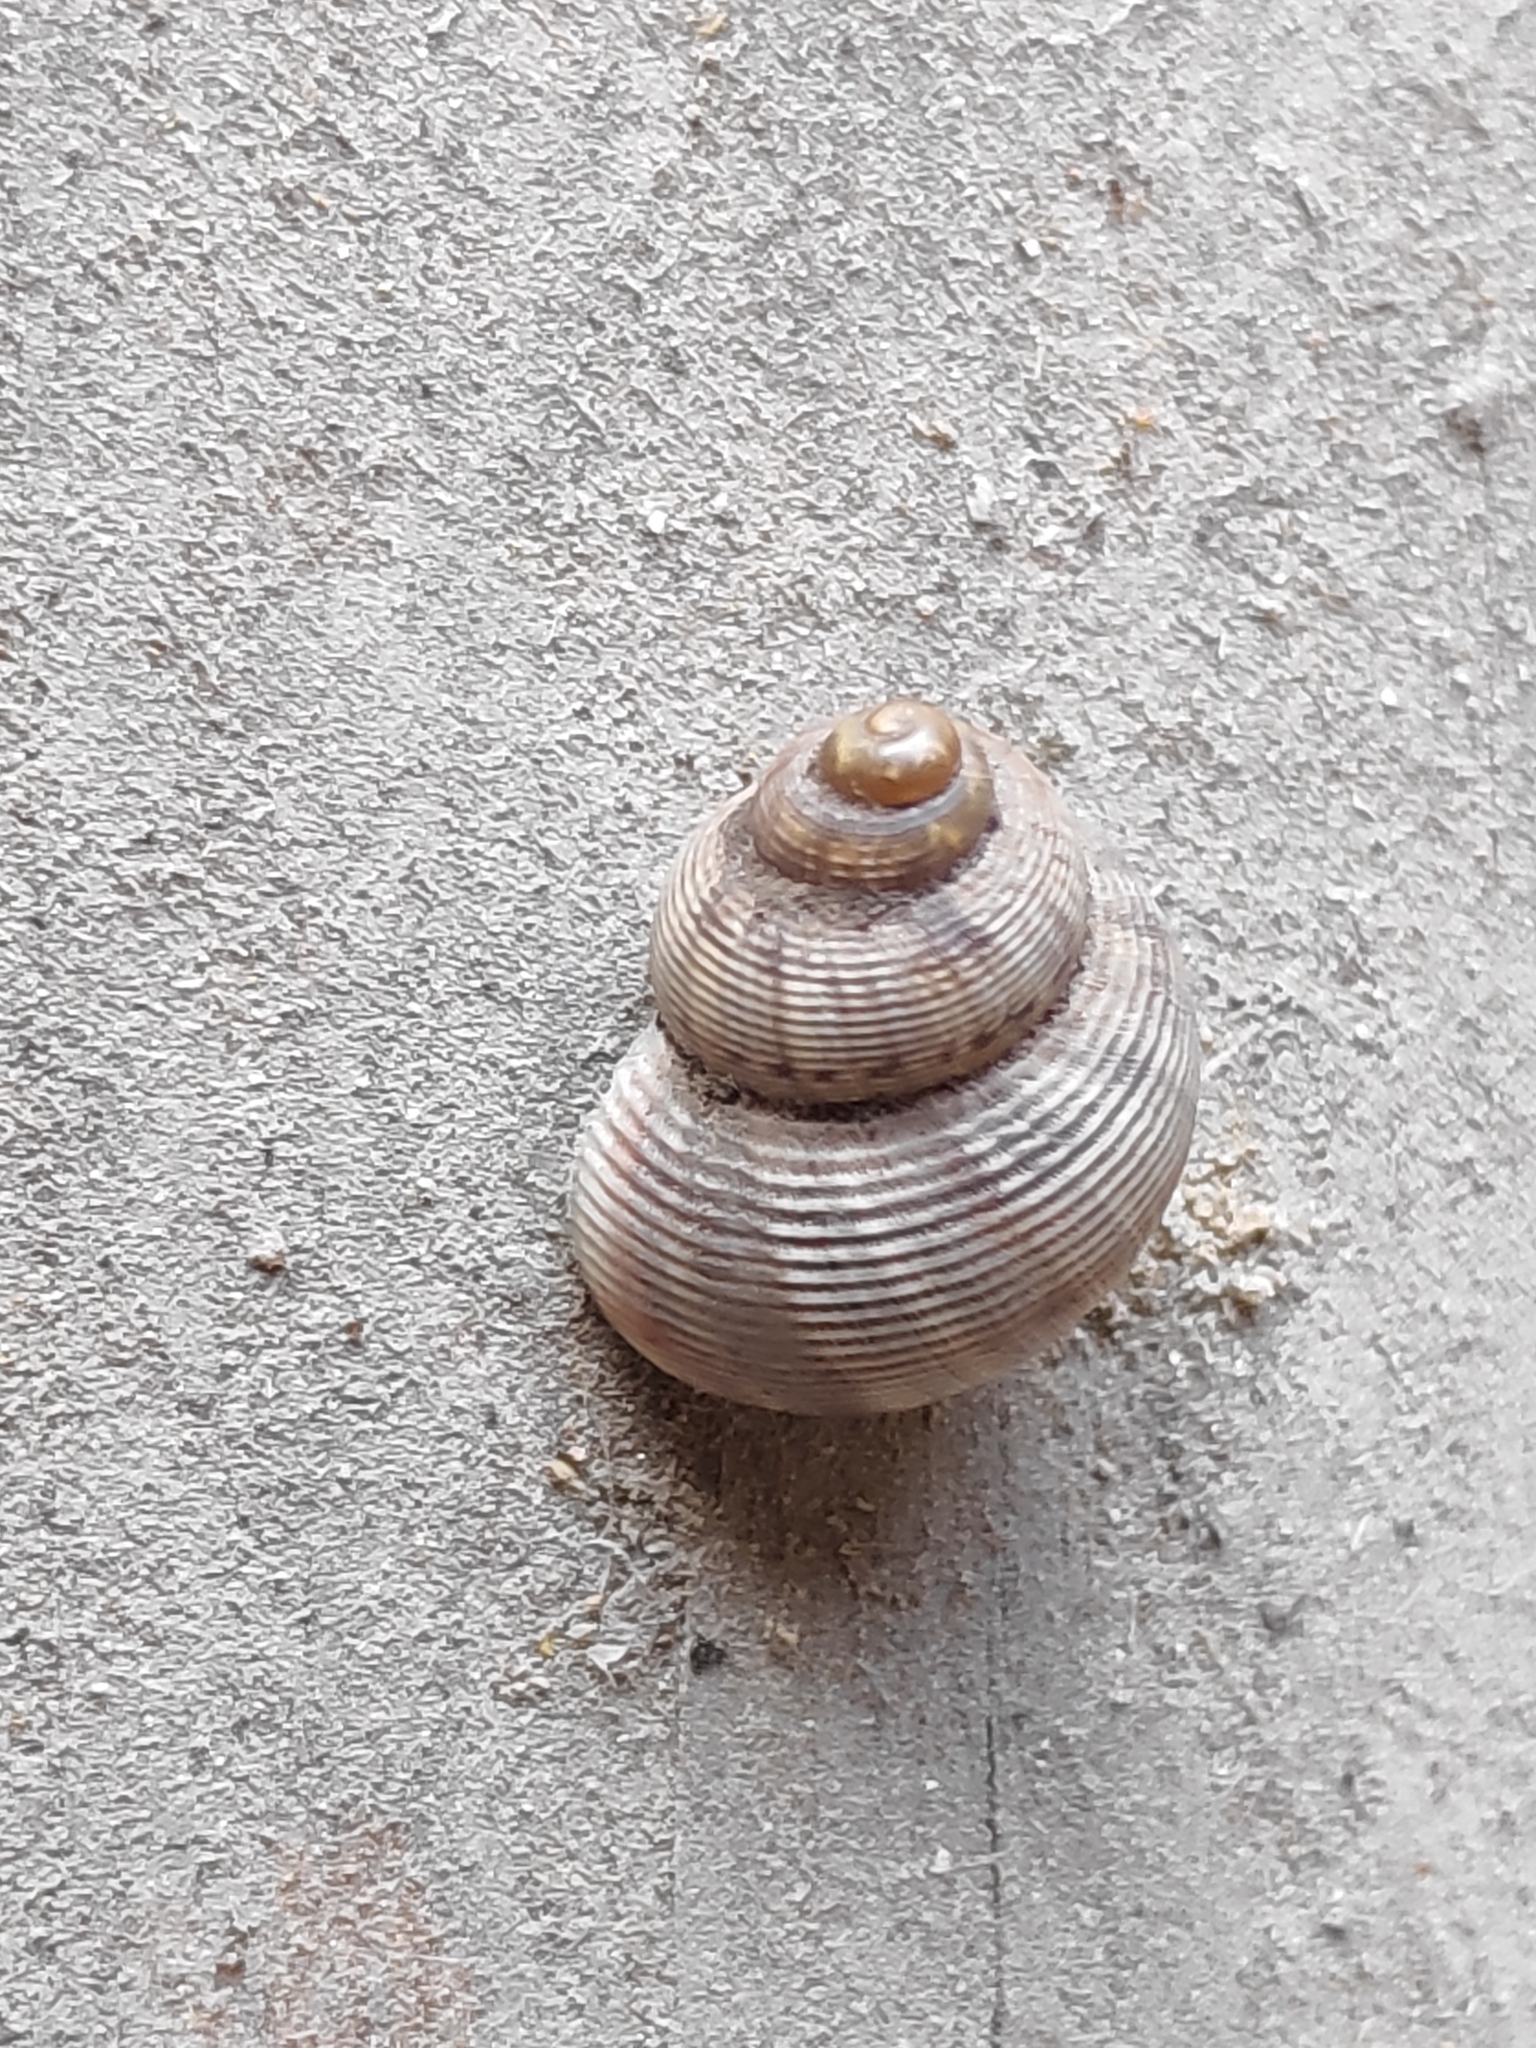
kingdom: Animalia
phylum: Mollusca
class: Gastropoda
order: Littorinimorpha
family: Pomatiidae
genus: Pomatias
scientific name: Pomatias elegans
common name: Red-mouthed snail
